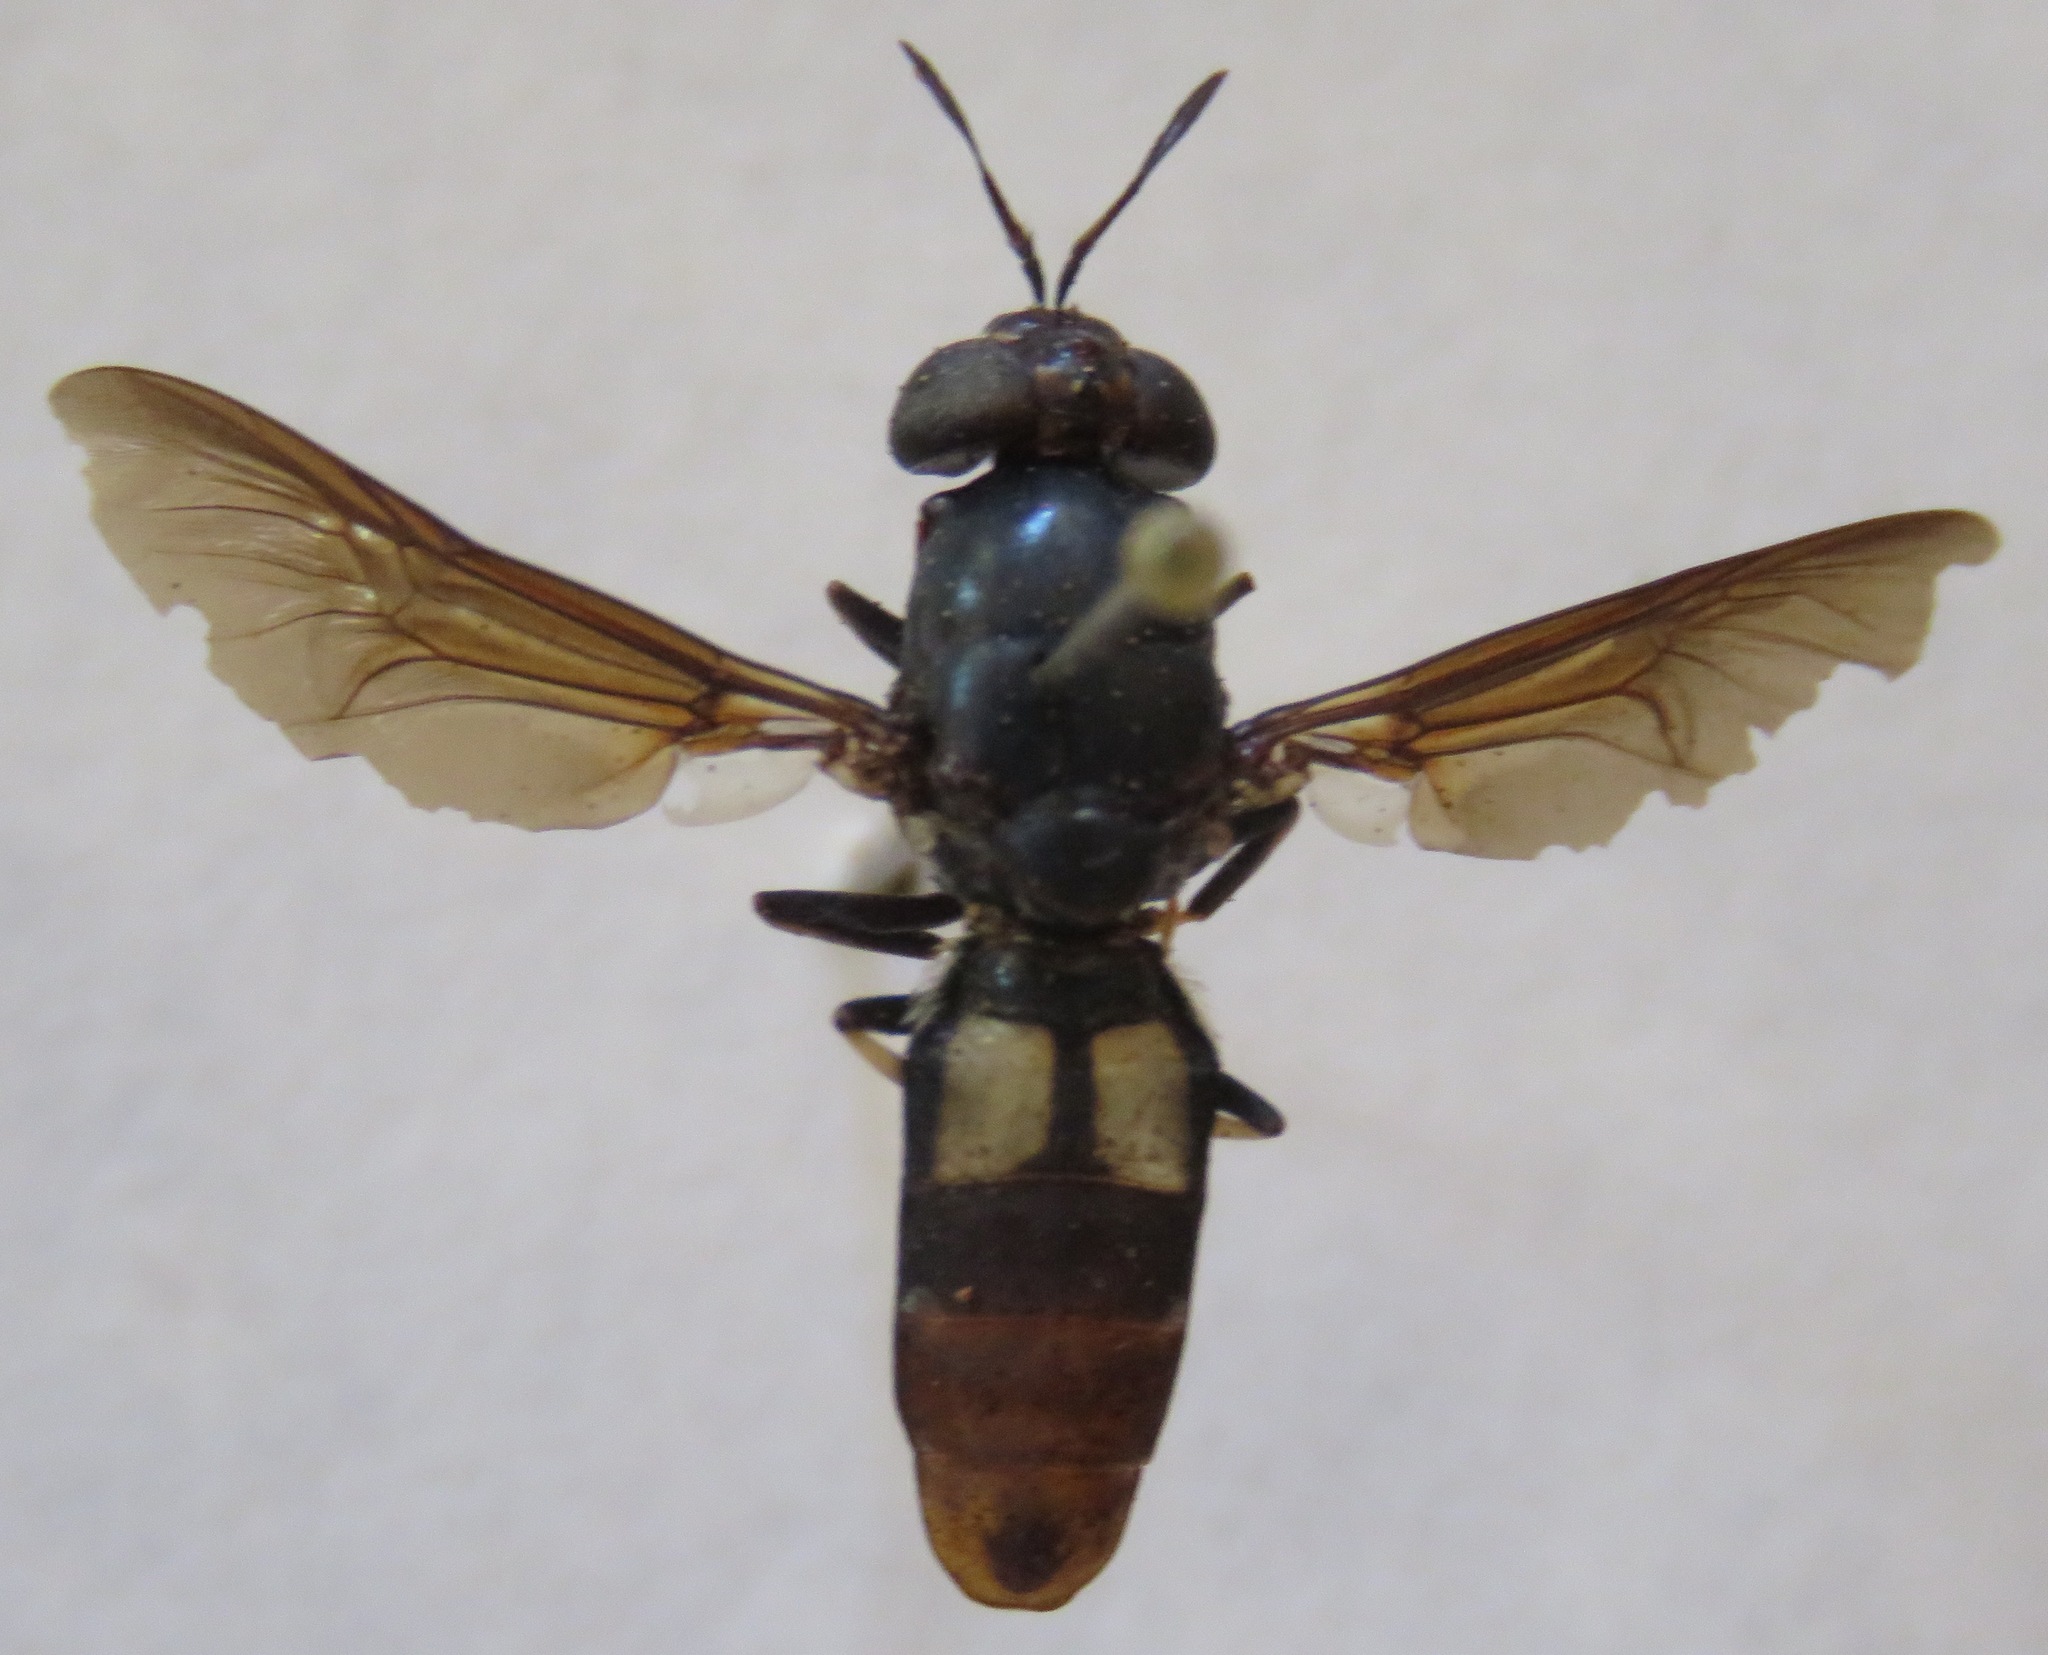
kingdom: Animalia
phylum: Arthropoda
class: Insecta
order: Diptera
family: Stratiomyidae
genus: Hermetia
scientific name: Hermetia illucens
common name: Black soldier fly
